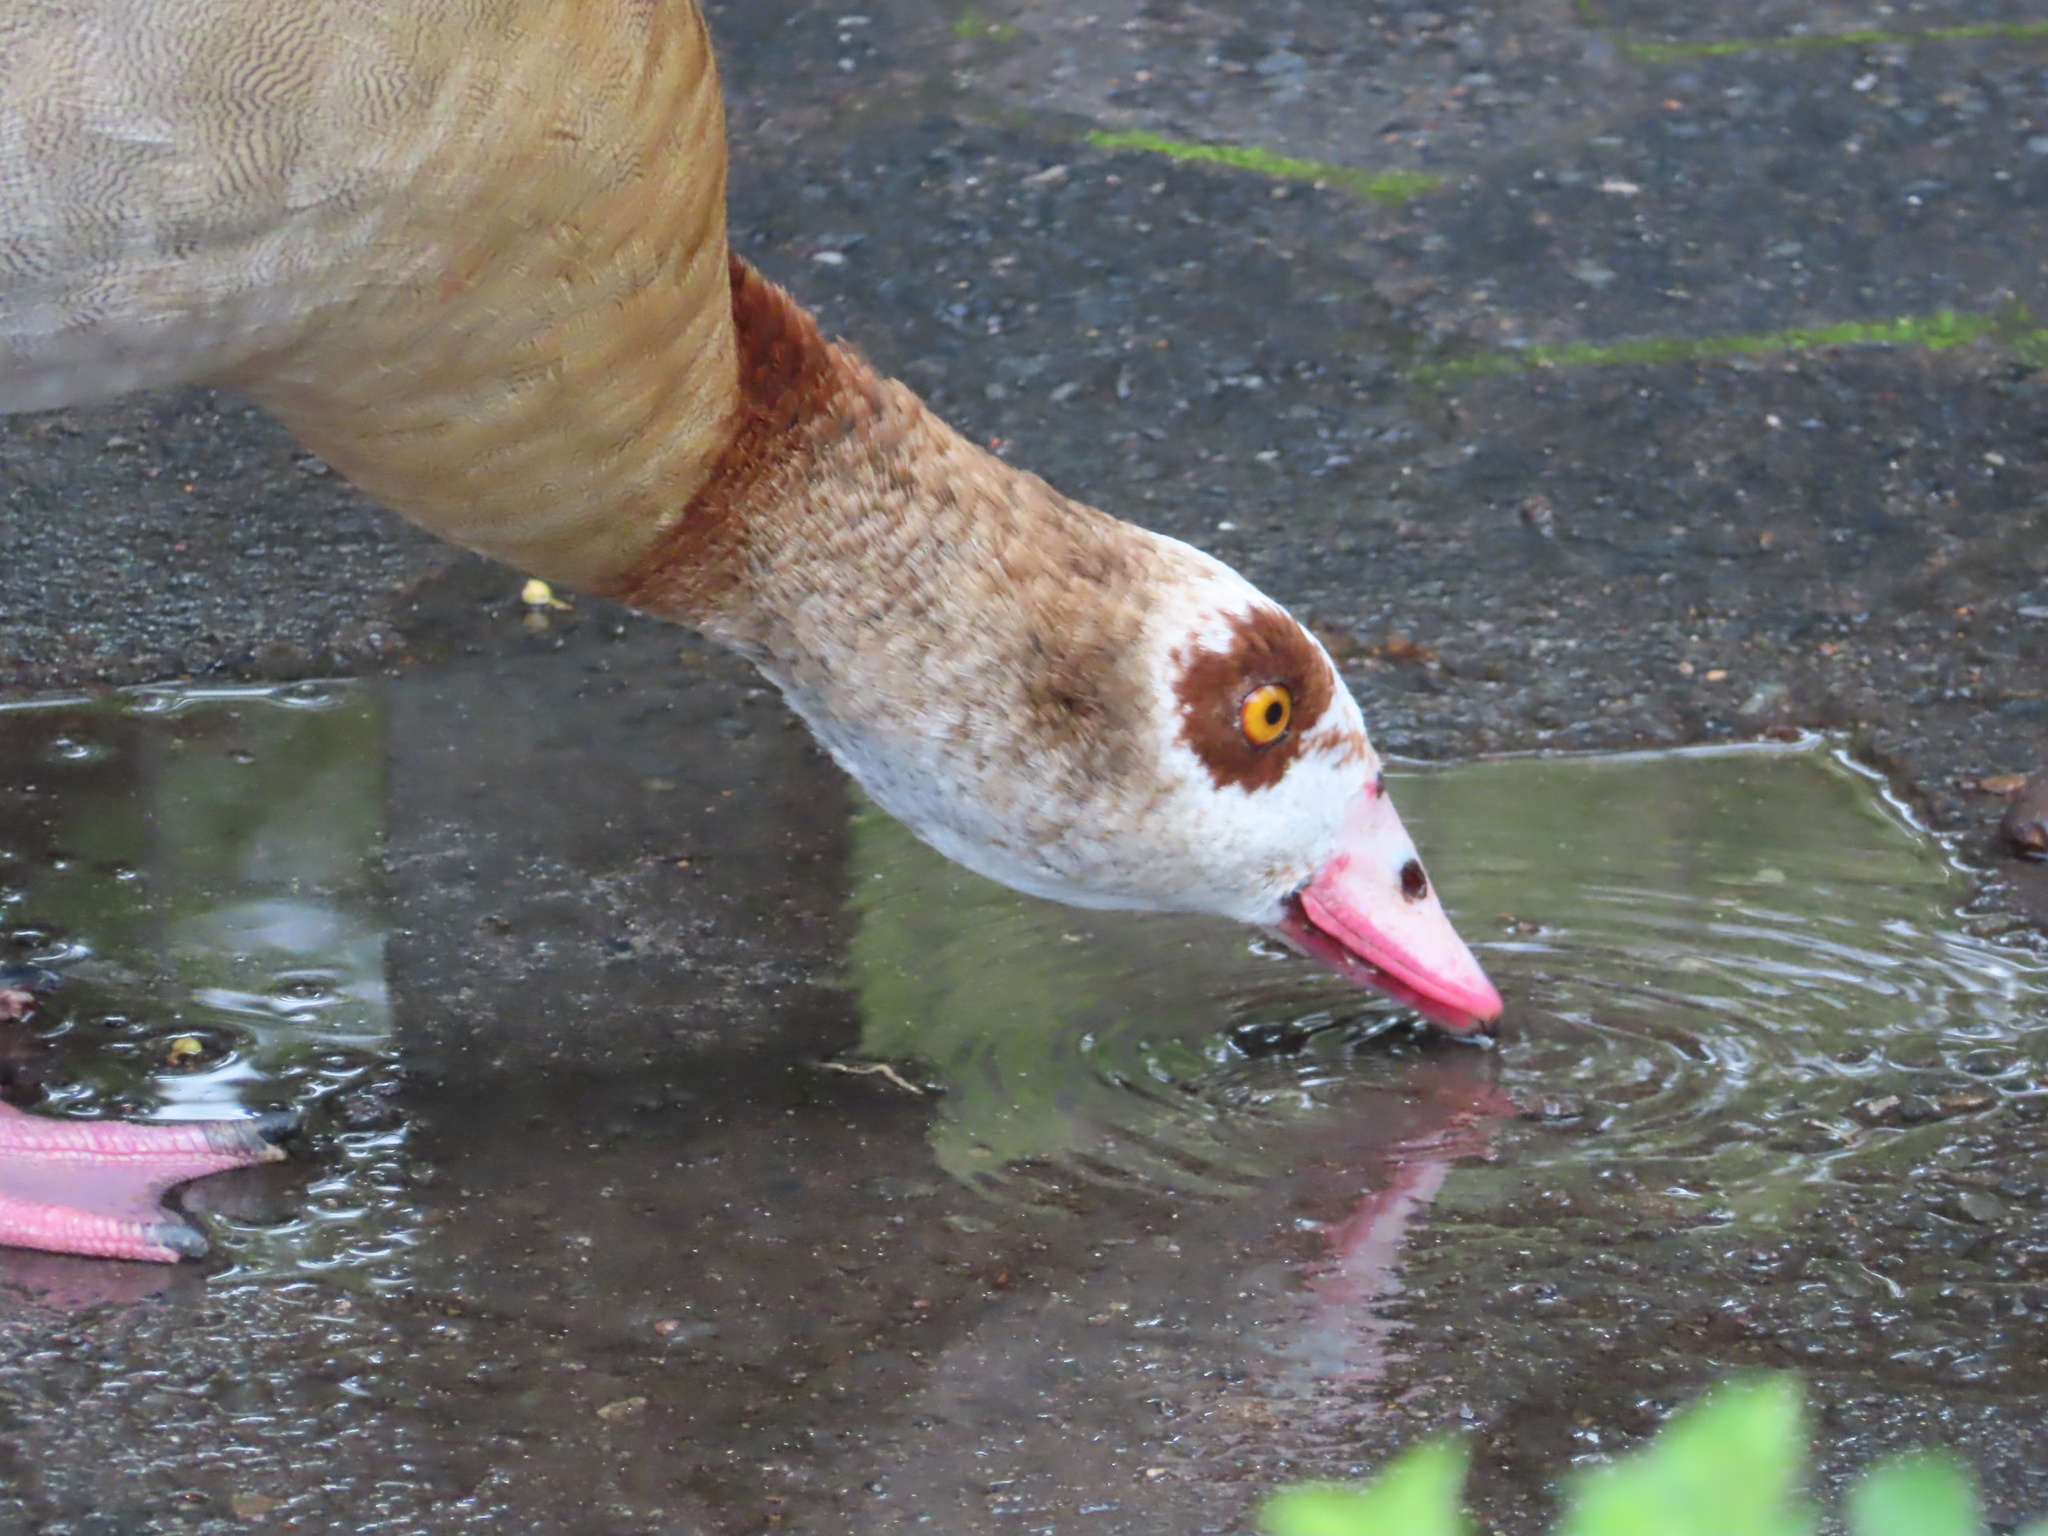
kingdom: Animalia
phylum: Chordata
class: Aves
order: Anseriformes
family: Anatidae
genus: Alopochen
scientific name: Alopochen aegyptiaca
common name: Egyptian goose
